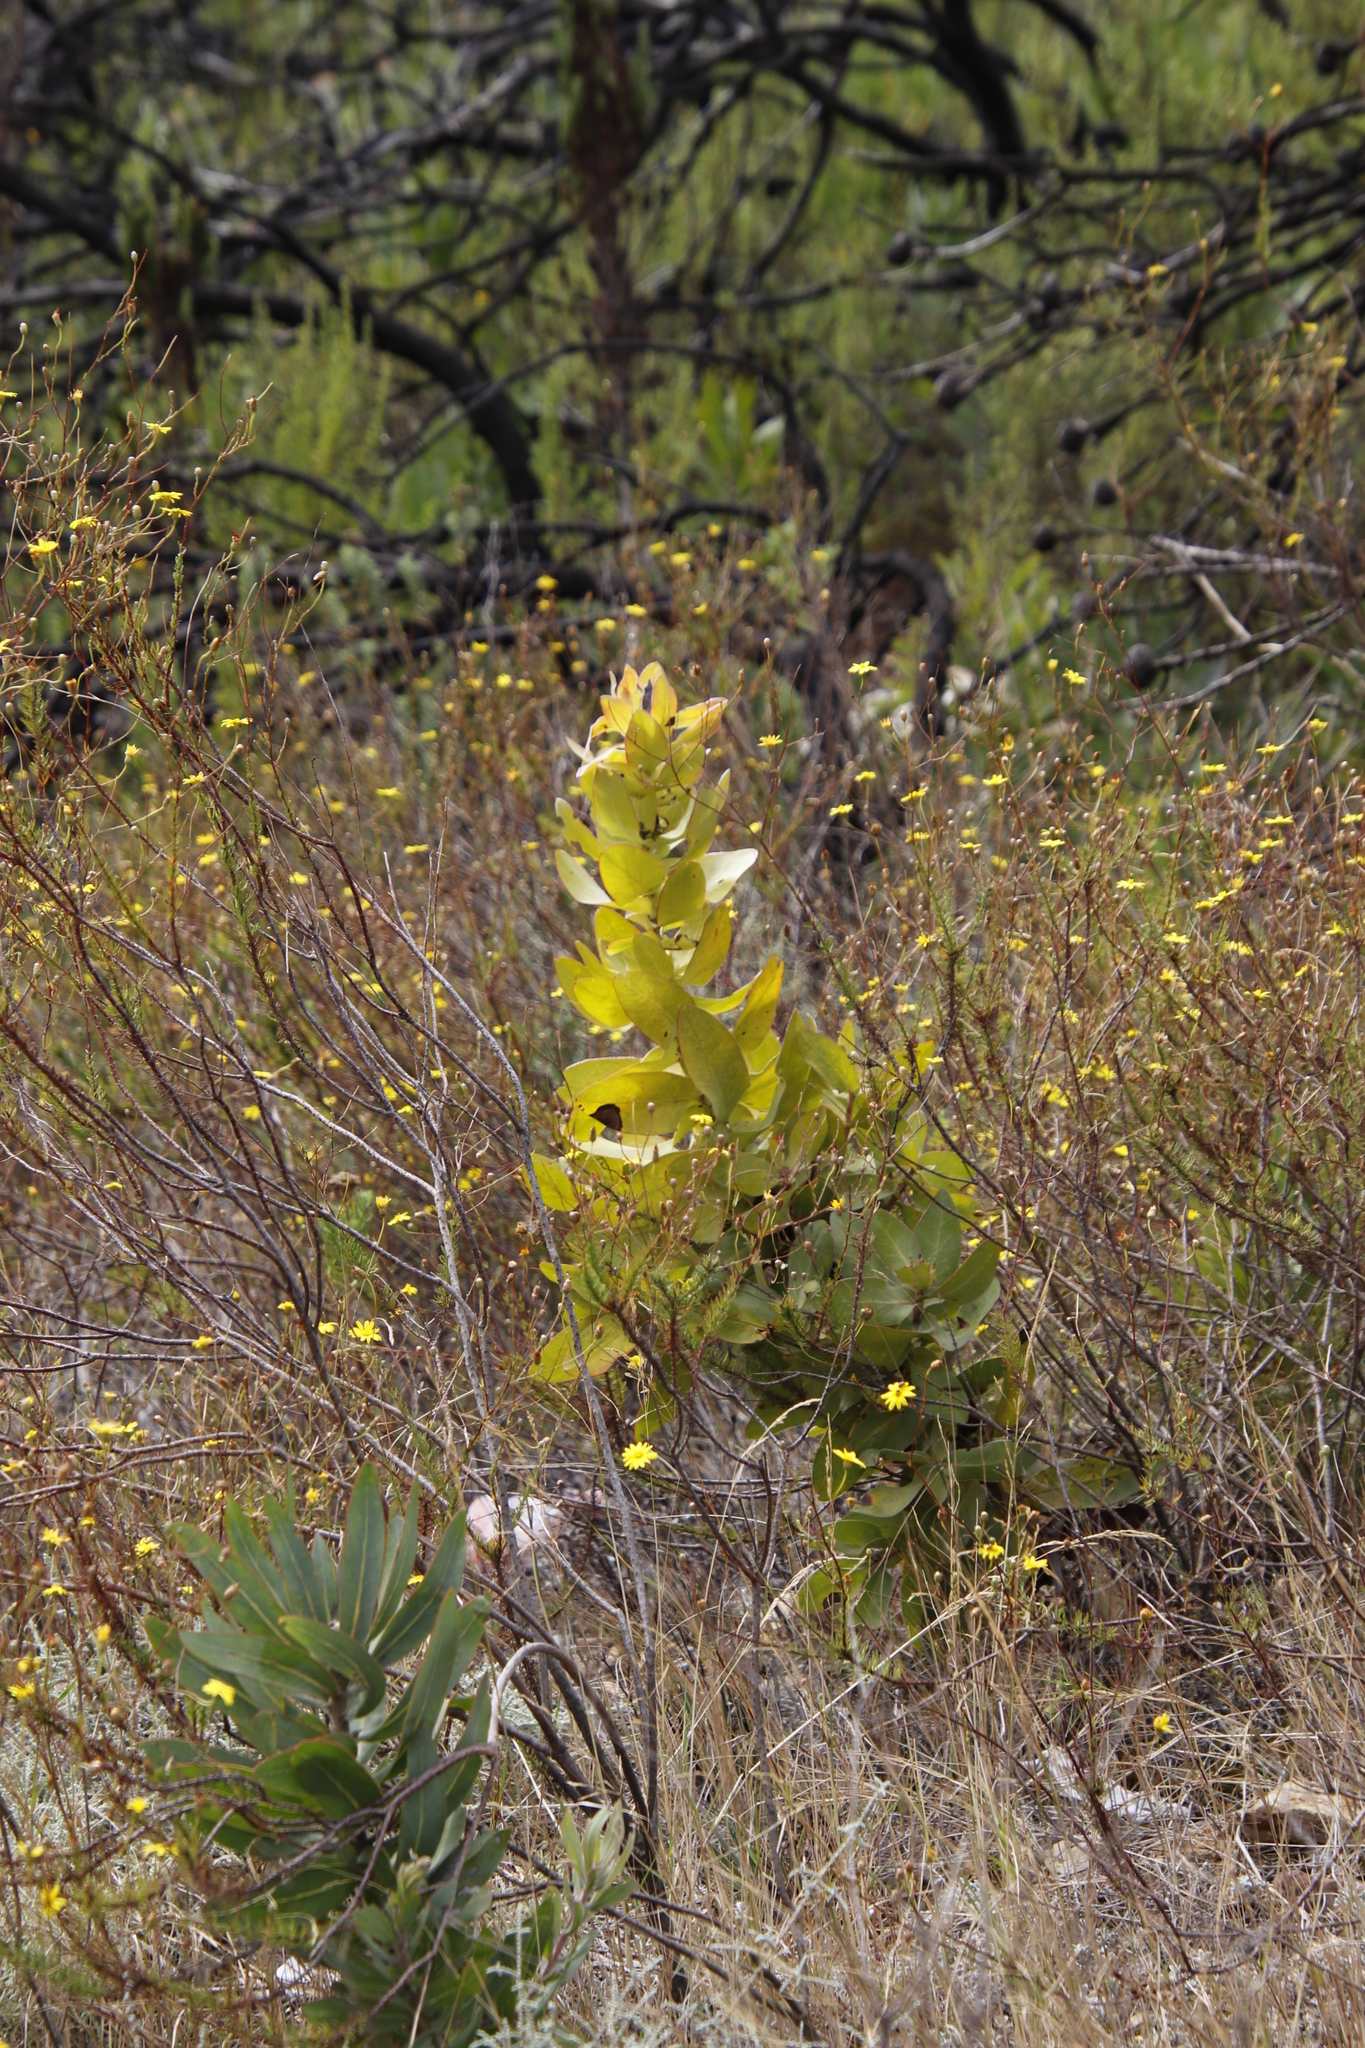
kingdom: Plantae
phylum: Tracheophyta
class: Magnoliopsida
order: Proteales
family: Proteaceae
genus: Protea
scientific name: Protea eximia
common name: Broad-leaved sugarbush
